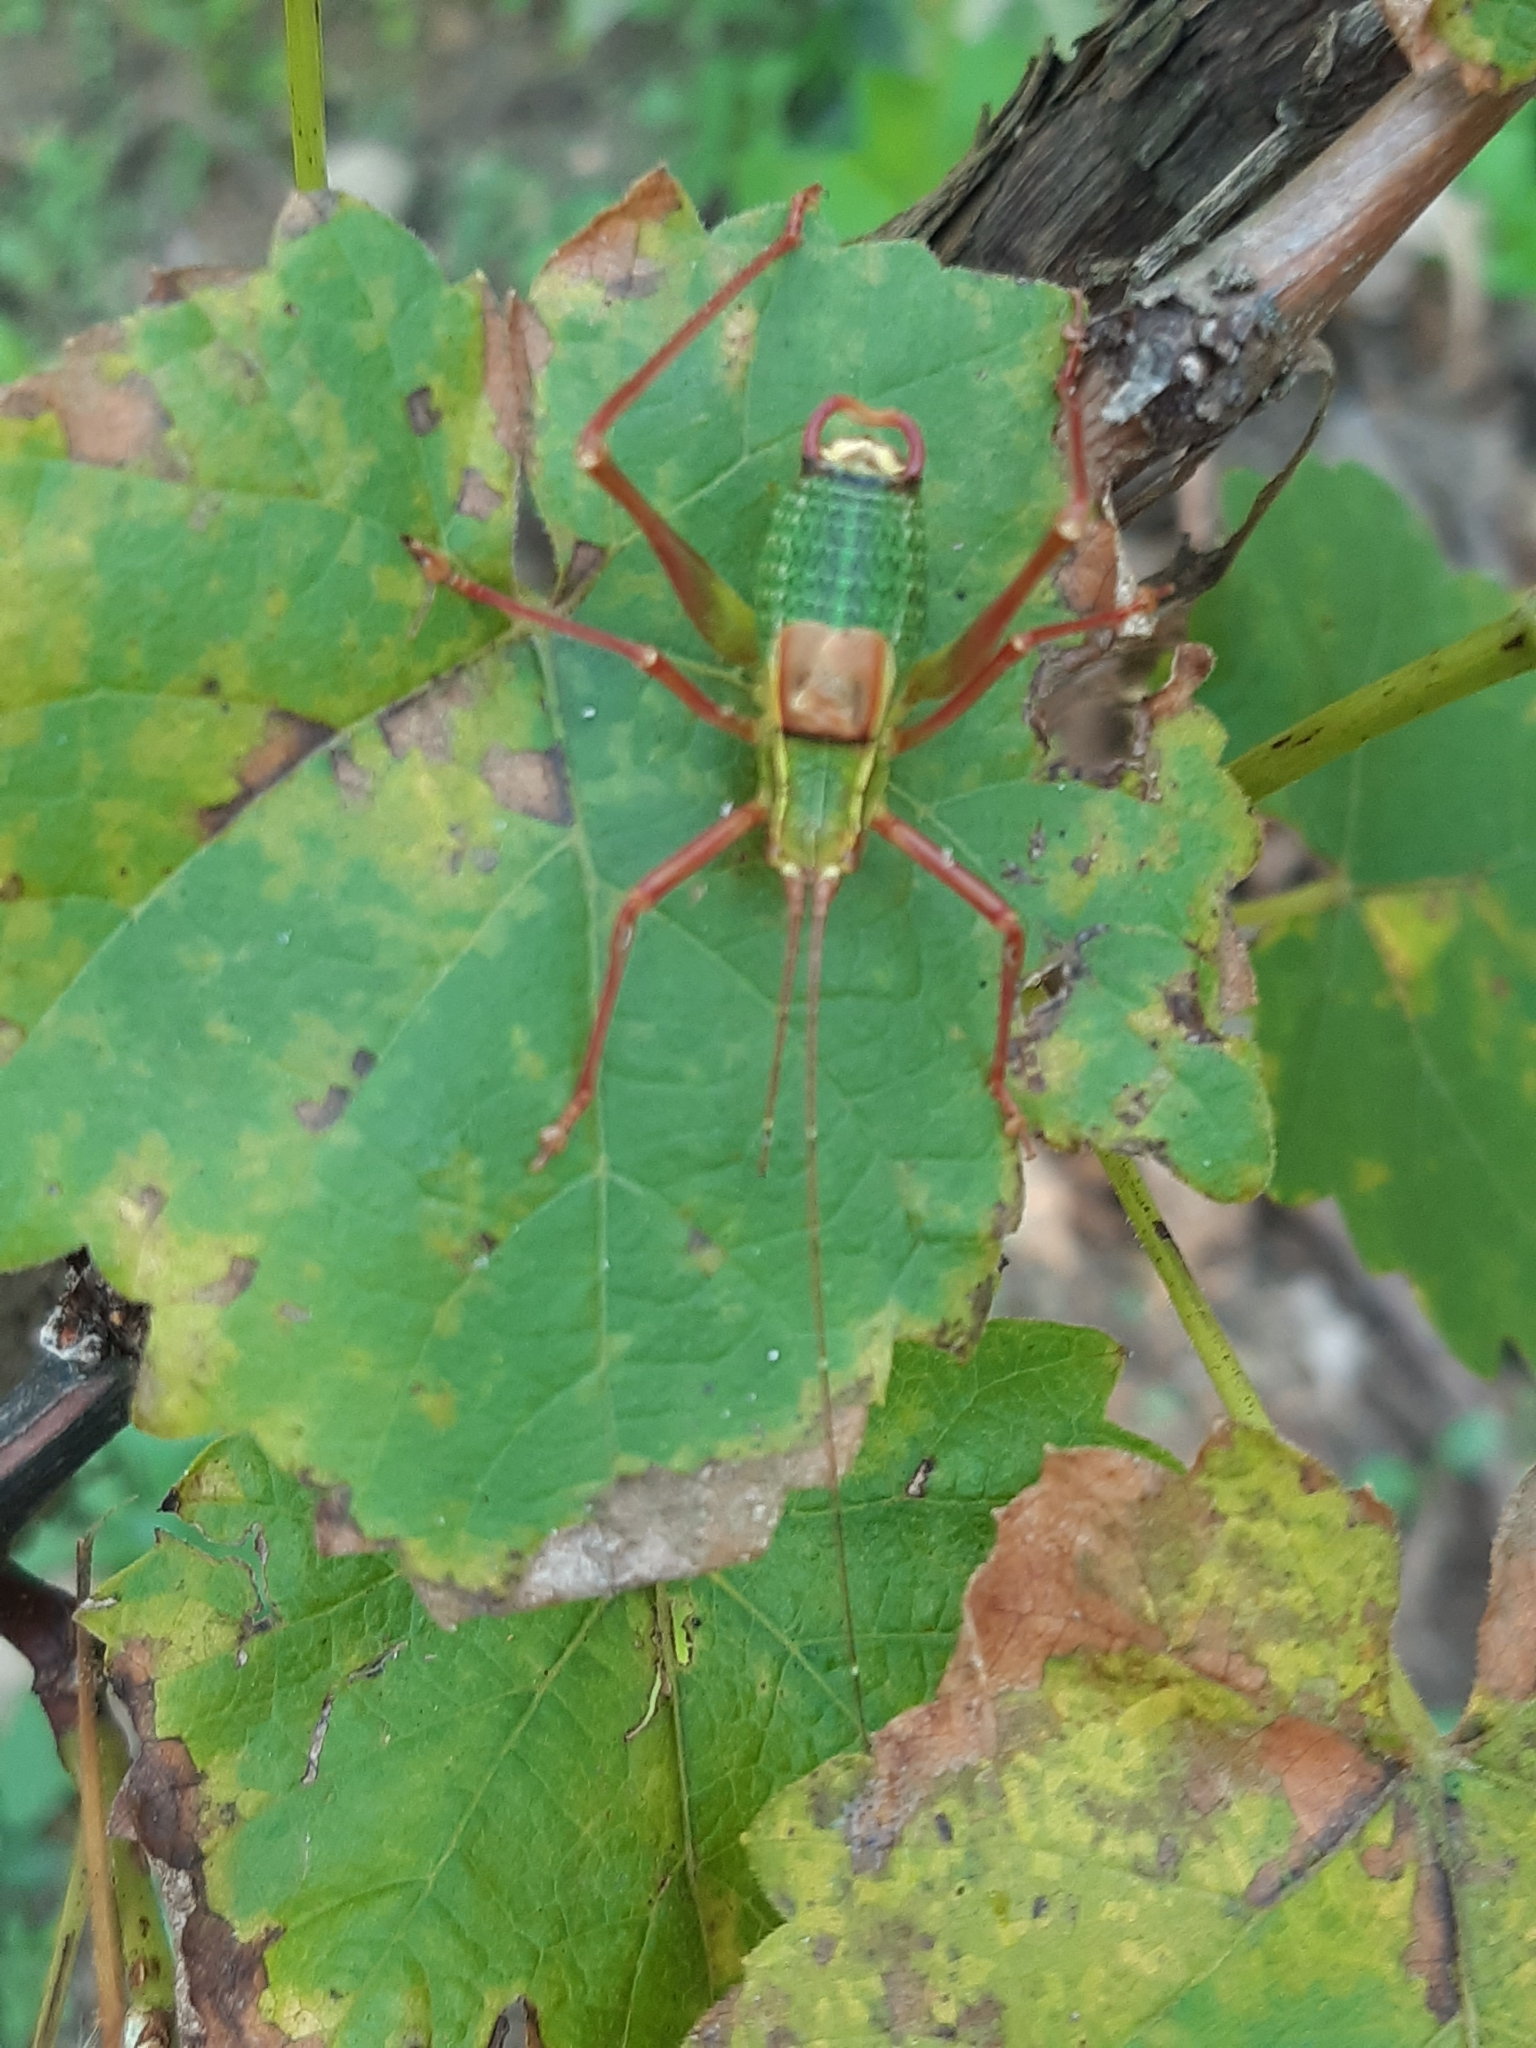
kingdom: Animalia
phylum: Arthropoda
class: Insecta
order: Orthoptera
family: Tettigoniidae
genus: Barbitistes
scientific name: Barbitistes serricauda
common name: Saw-tailed bush-cricket
